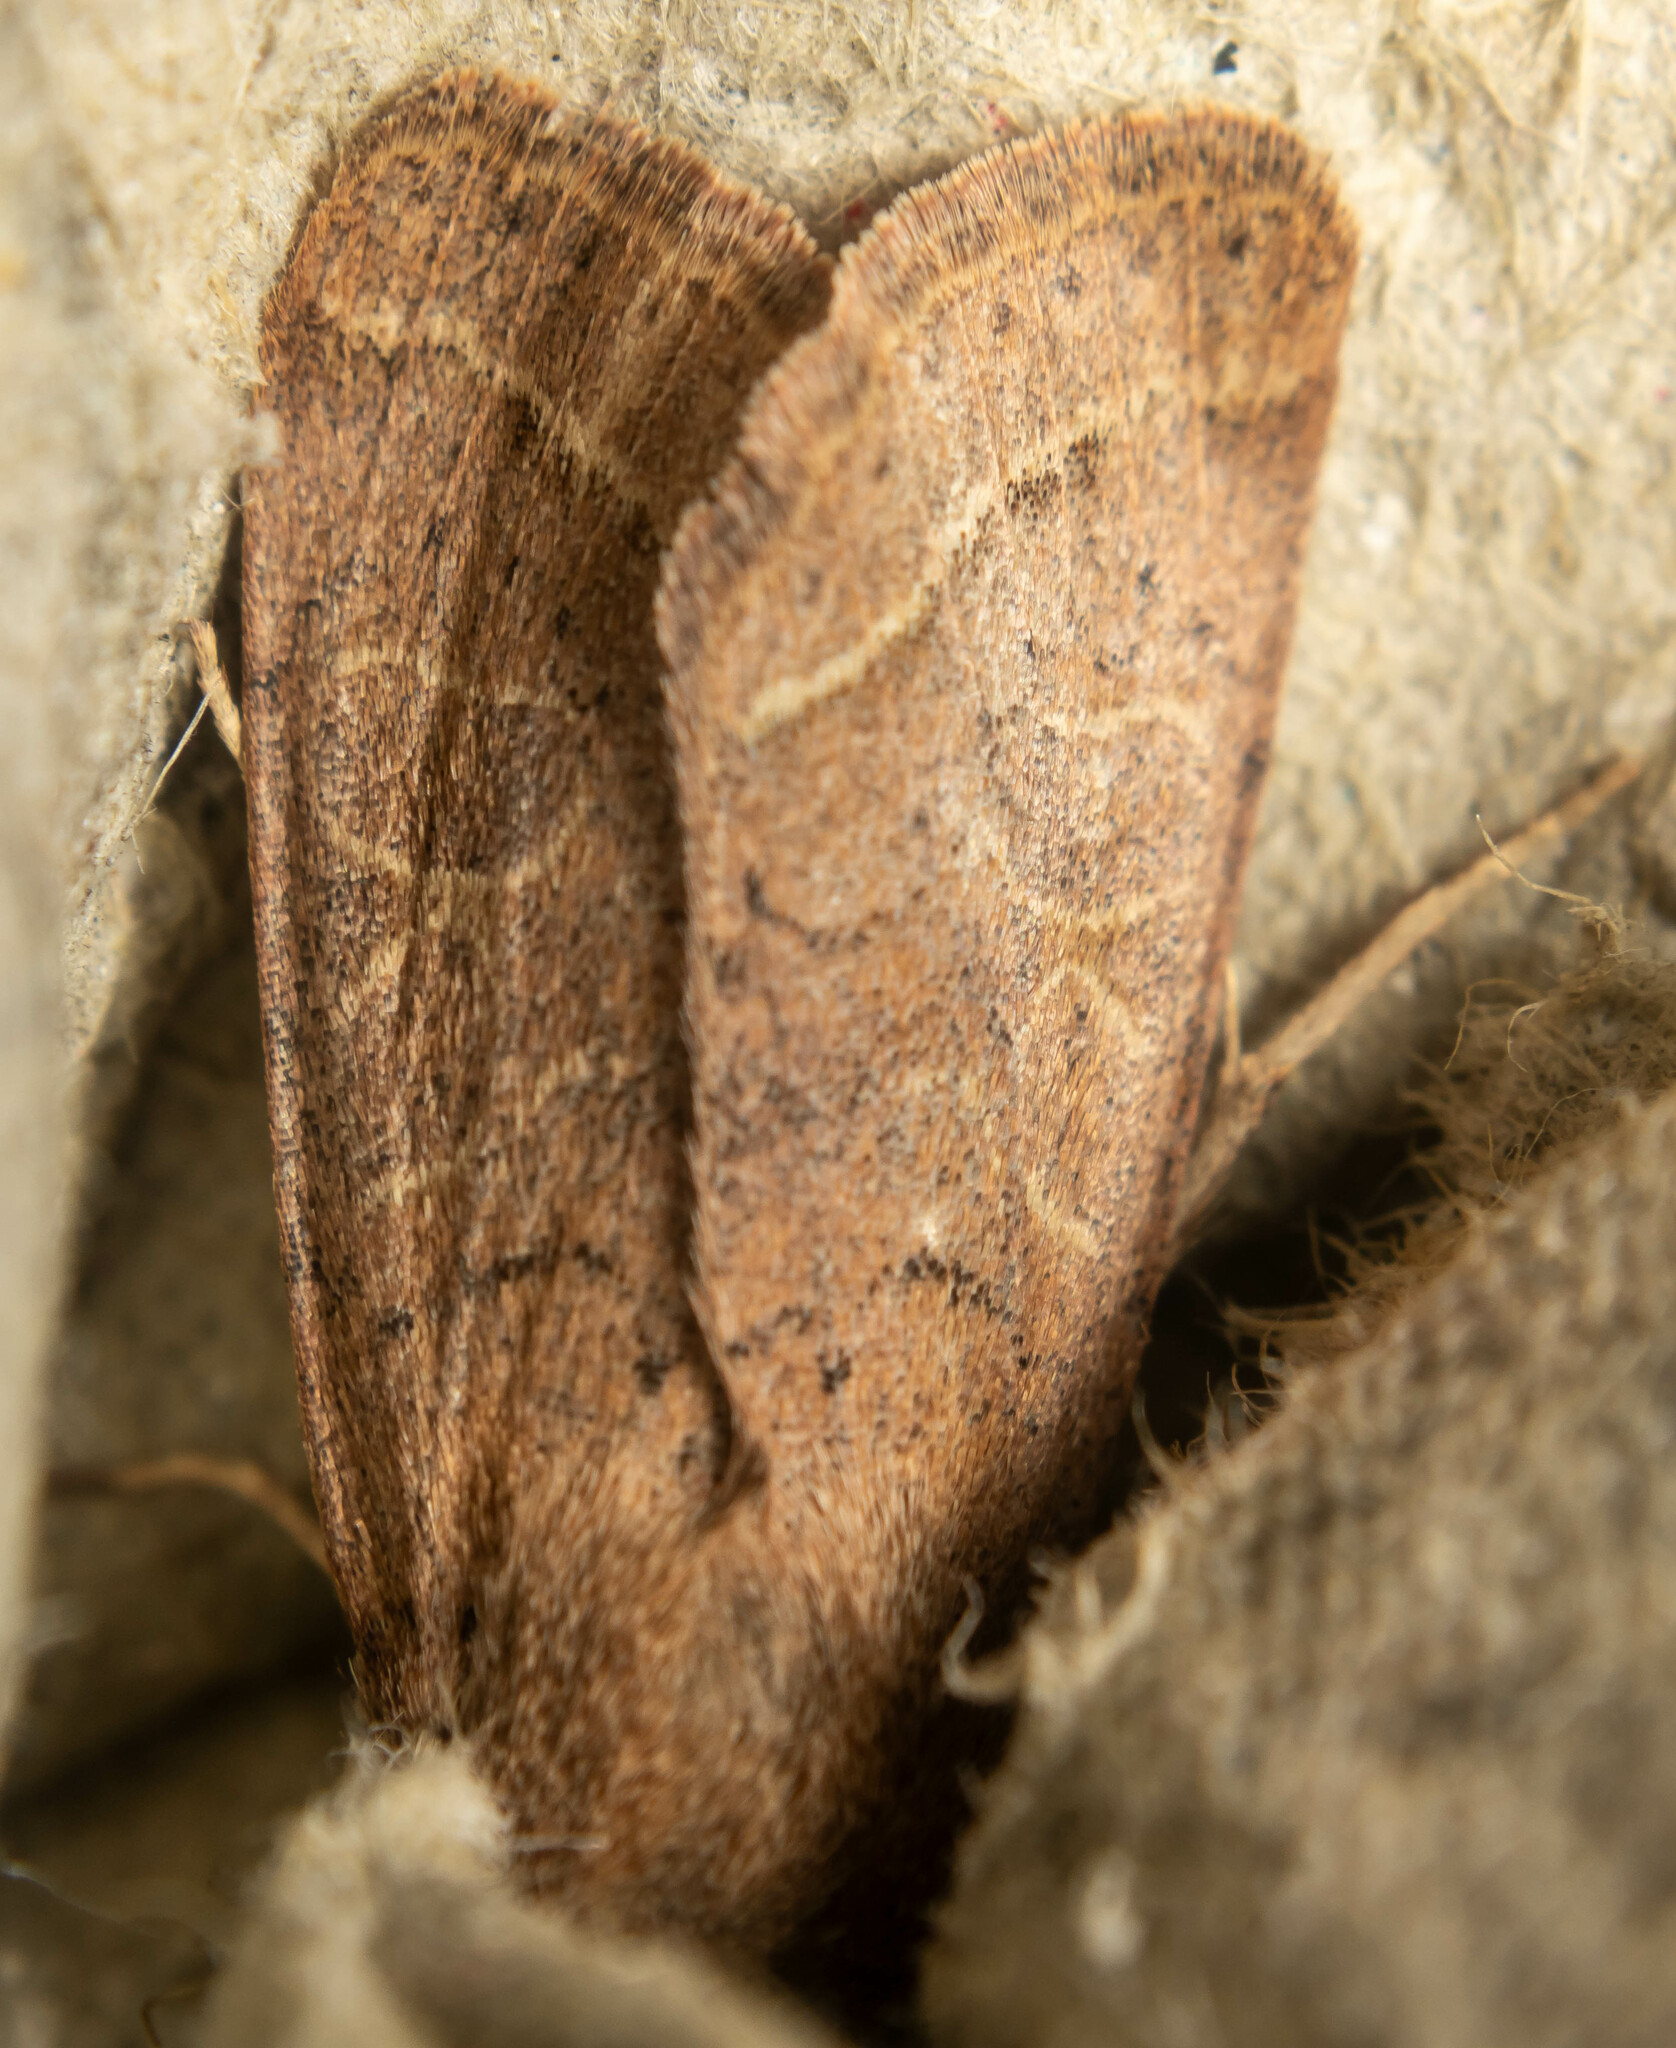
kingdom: Animalia
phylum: Arthropoda
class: Insecta
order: Lepidoptera
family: Noctuidae
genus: Orthosia
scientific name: Orthosia cerasi
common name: Common quaker
